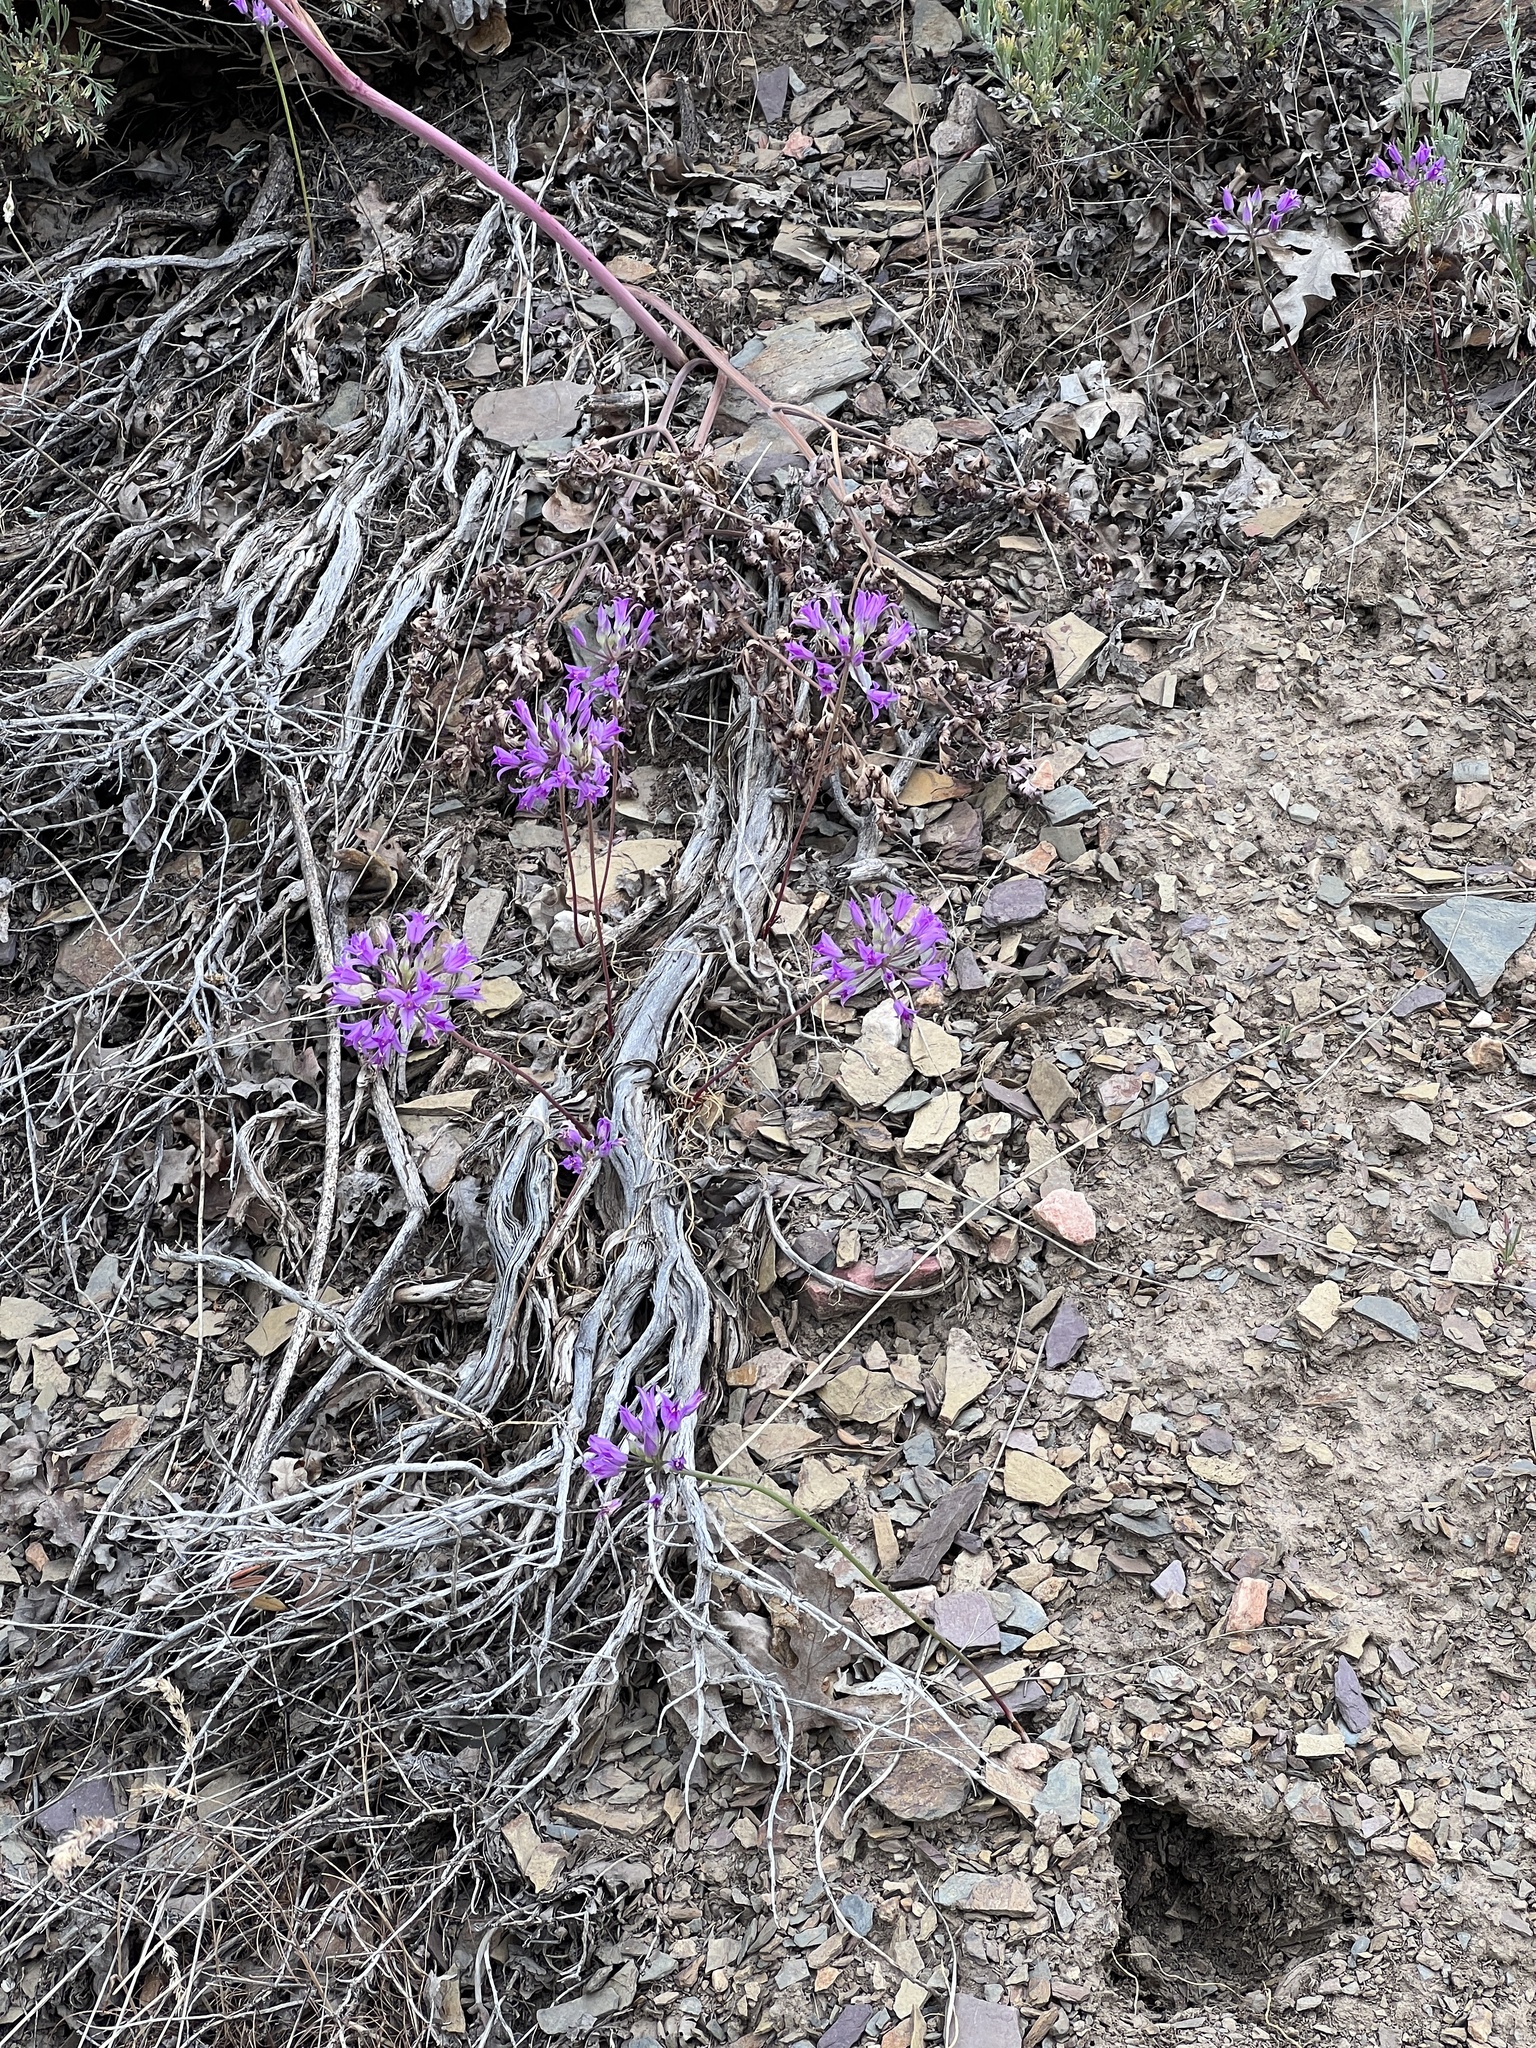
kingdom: Plantae
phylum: Tracheophyta
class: Liliopsida
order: Asparagales
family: Amaryllidaceae
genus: Allium
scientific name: Allium acuminatum
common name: Hooker's onion
